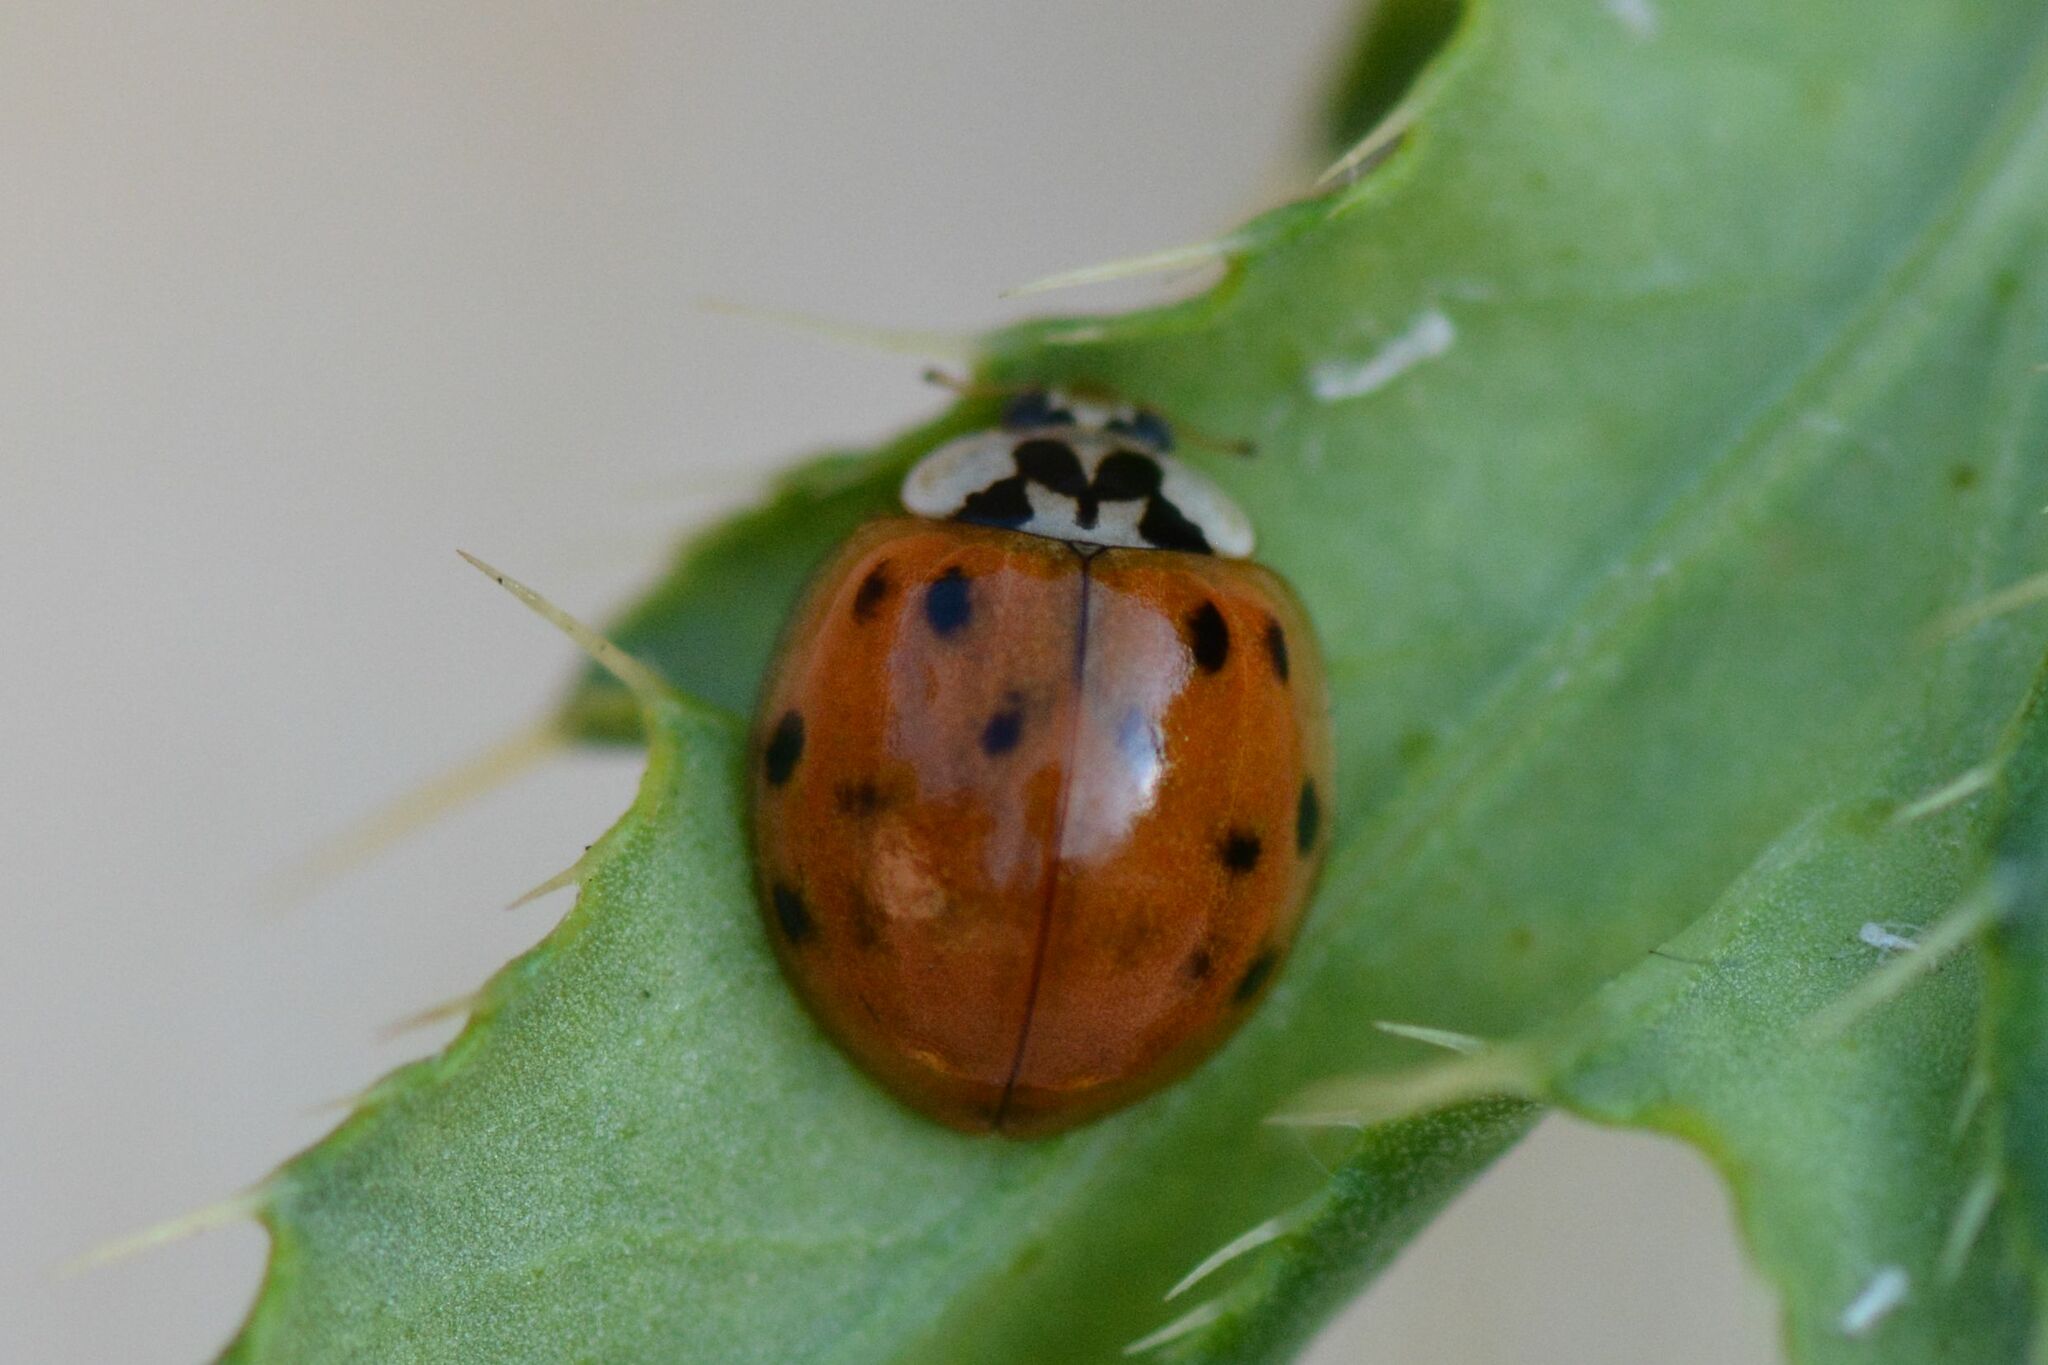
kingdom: Animalia
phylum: Arthropoda
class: Insecta
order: Coleoptera
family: Coccinellidae
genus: Harmonia
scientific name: Harmonia axyridis
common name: Harlequin ladybird
